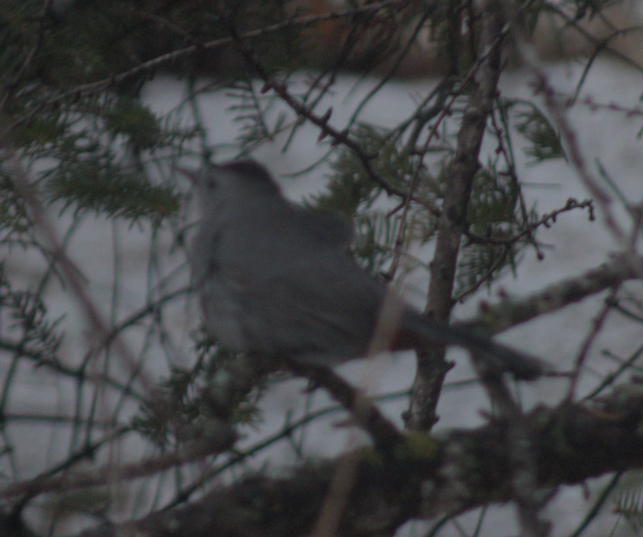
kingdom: Animalia
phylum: Chordata
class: Aves
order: Passeriformes
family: Mimidae
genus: Dumetella
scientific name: Dumetella carolinensis
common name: Gray catbird
